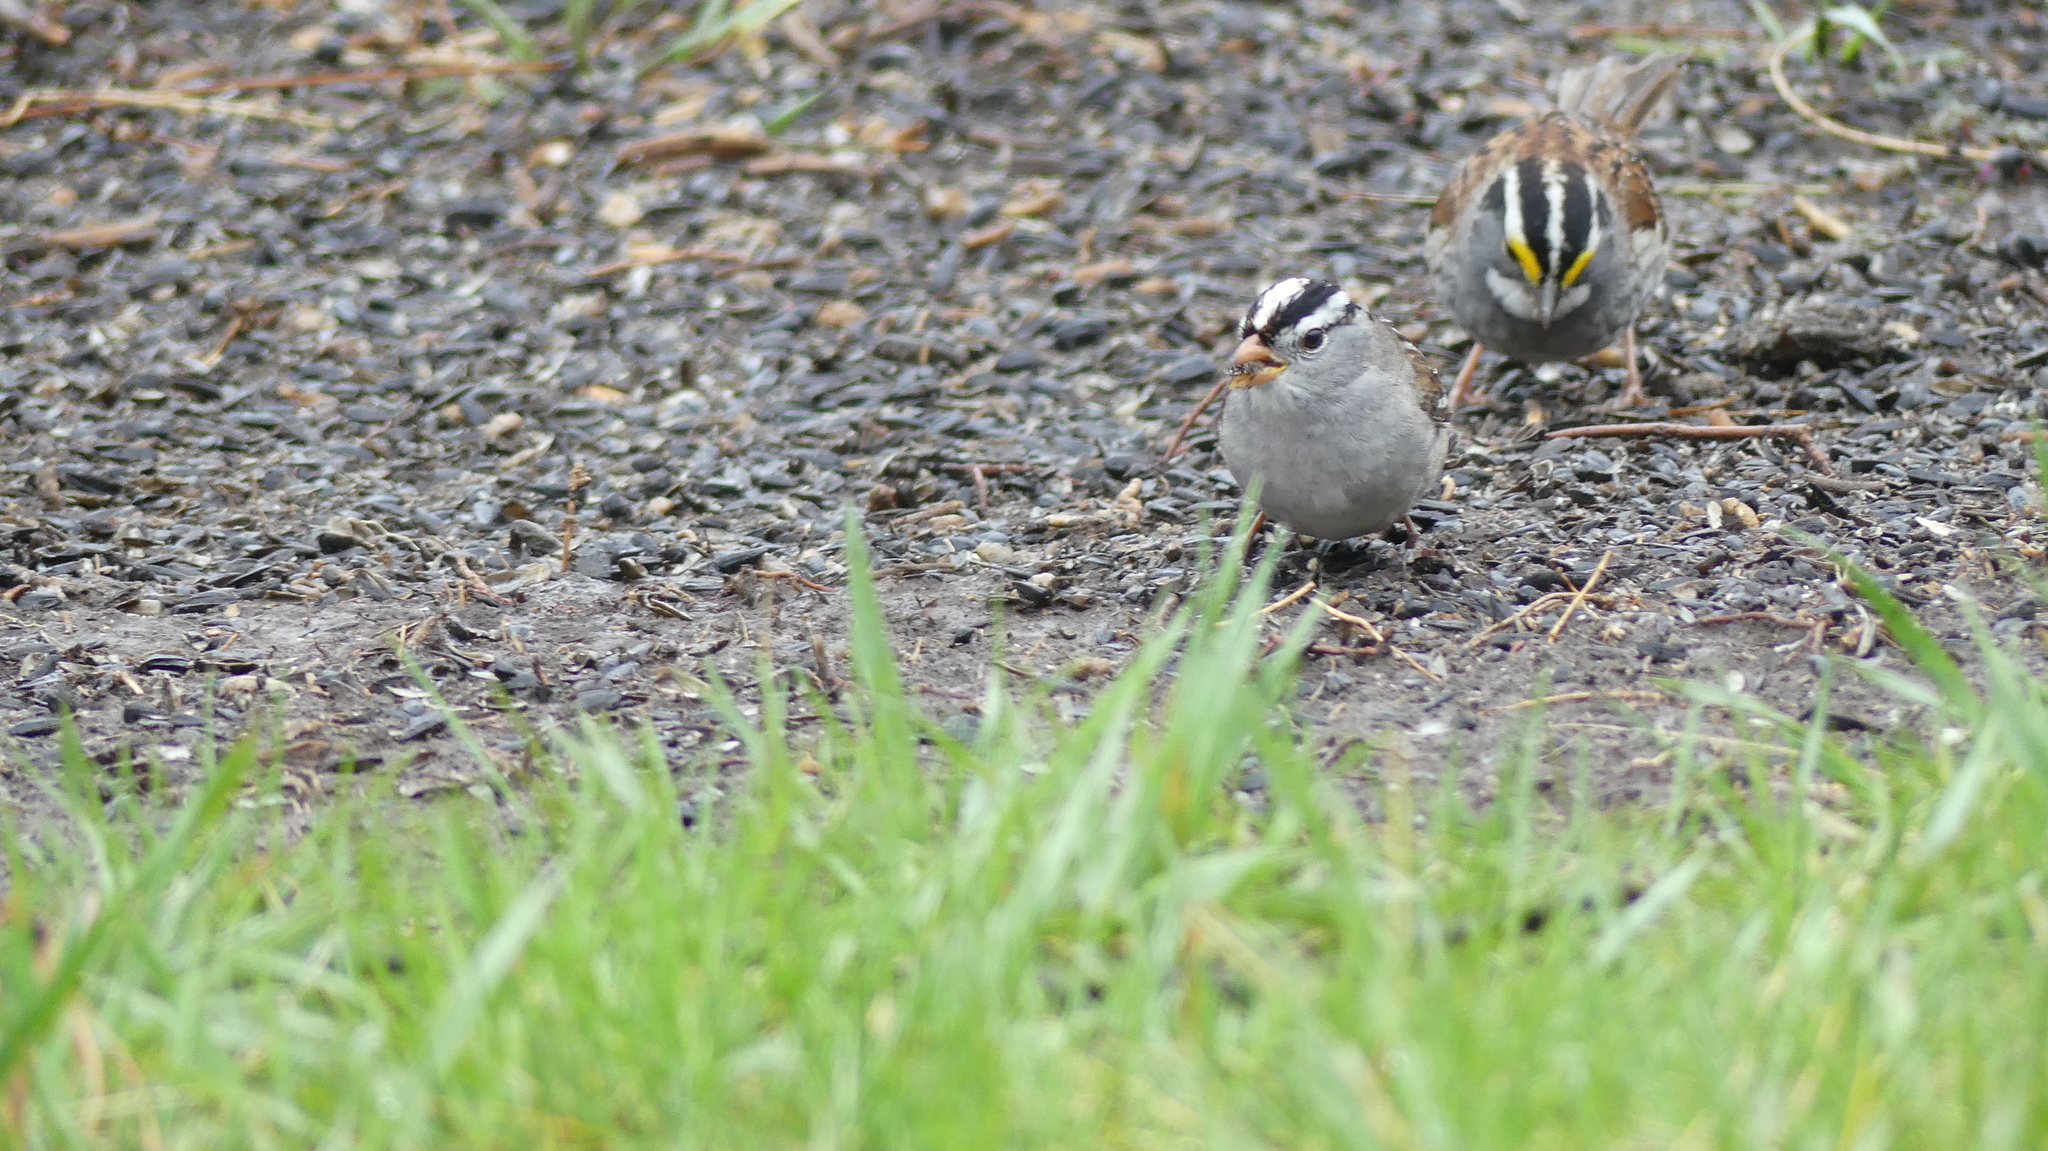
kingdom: Animalia
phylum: Chordata
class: Aves
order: Passeriformes
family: Passerellidae
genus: Zonotrichia
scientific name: Zonotrichia leucophrys
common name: White-crowned sparrow
